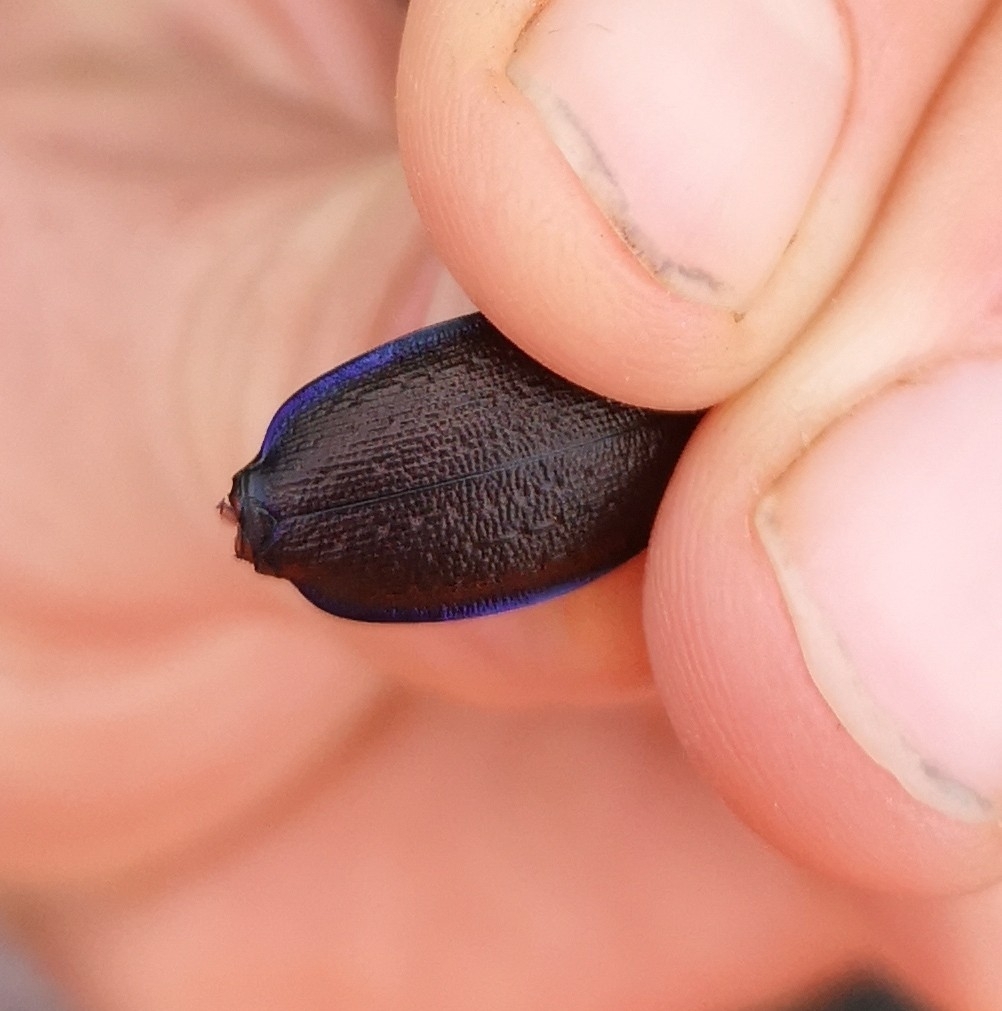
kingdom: Animalia
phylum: Arthropoda
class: Insecta
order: Coleoptera
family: Carabidae
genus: Carabus
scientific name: Carabus problematicus
